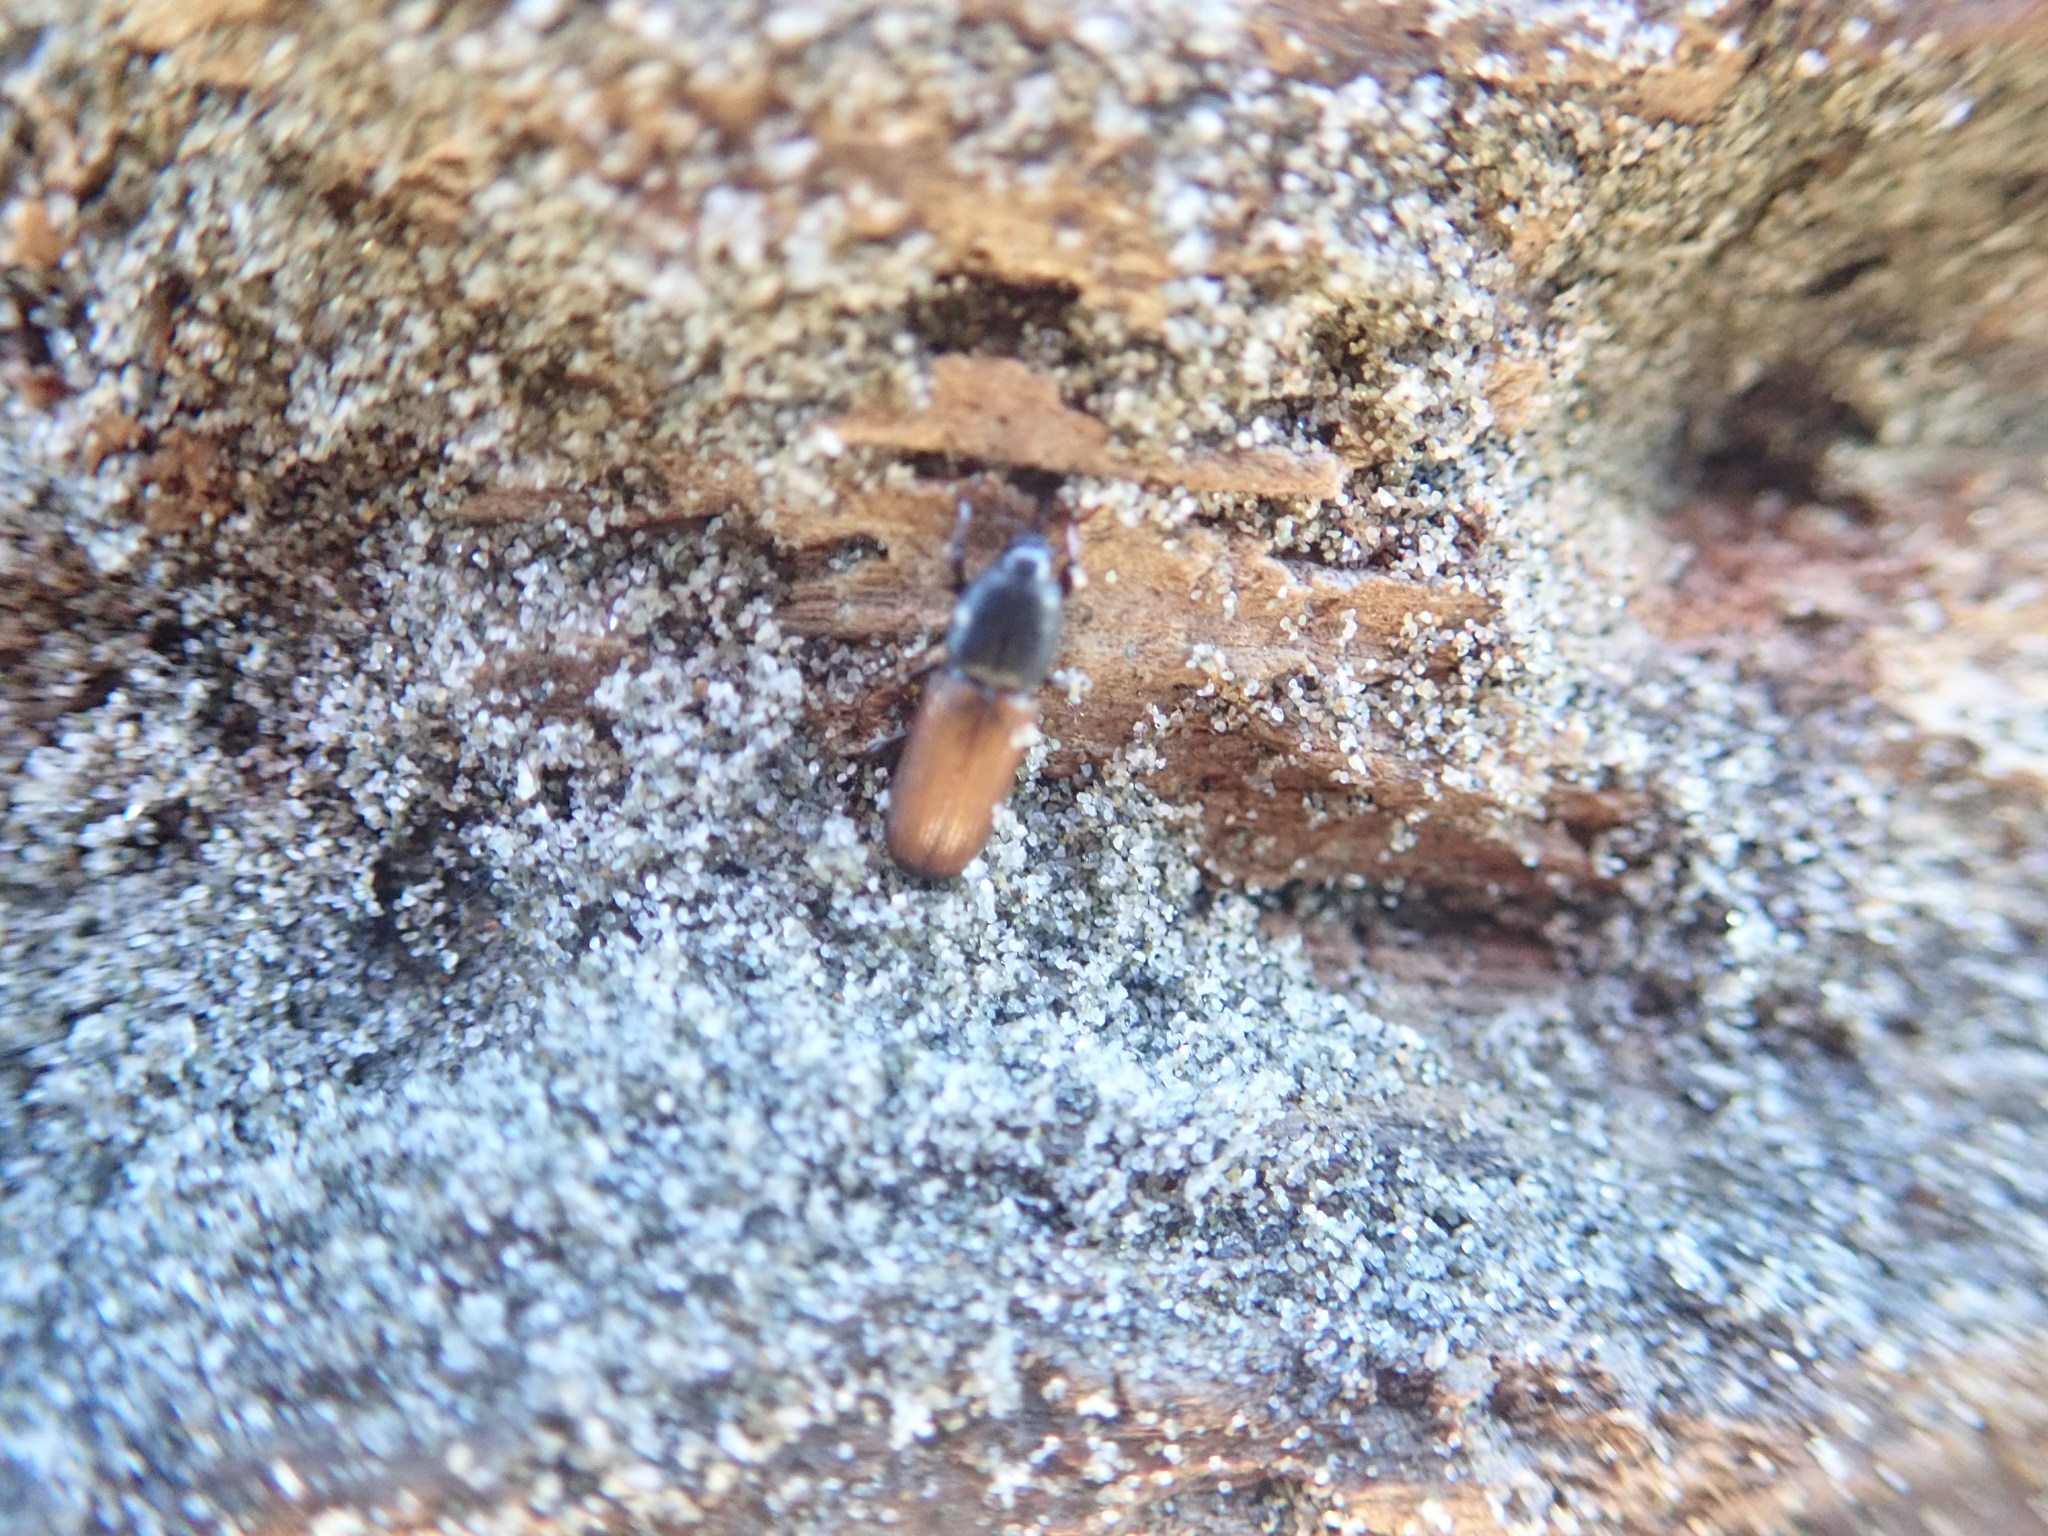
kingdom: Animalia
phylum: Arthropoda
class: Insecta
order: Coleoptera
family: Curculionidae
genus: Mesites
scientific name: Mesites pallidipennis
